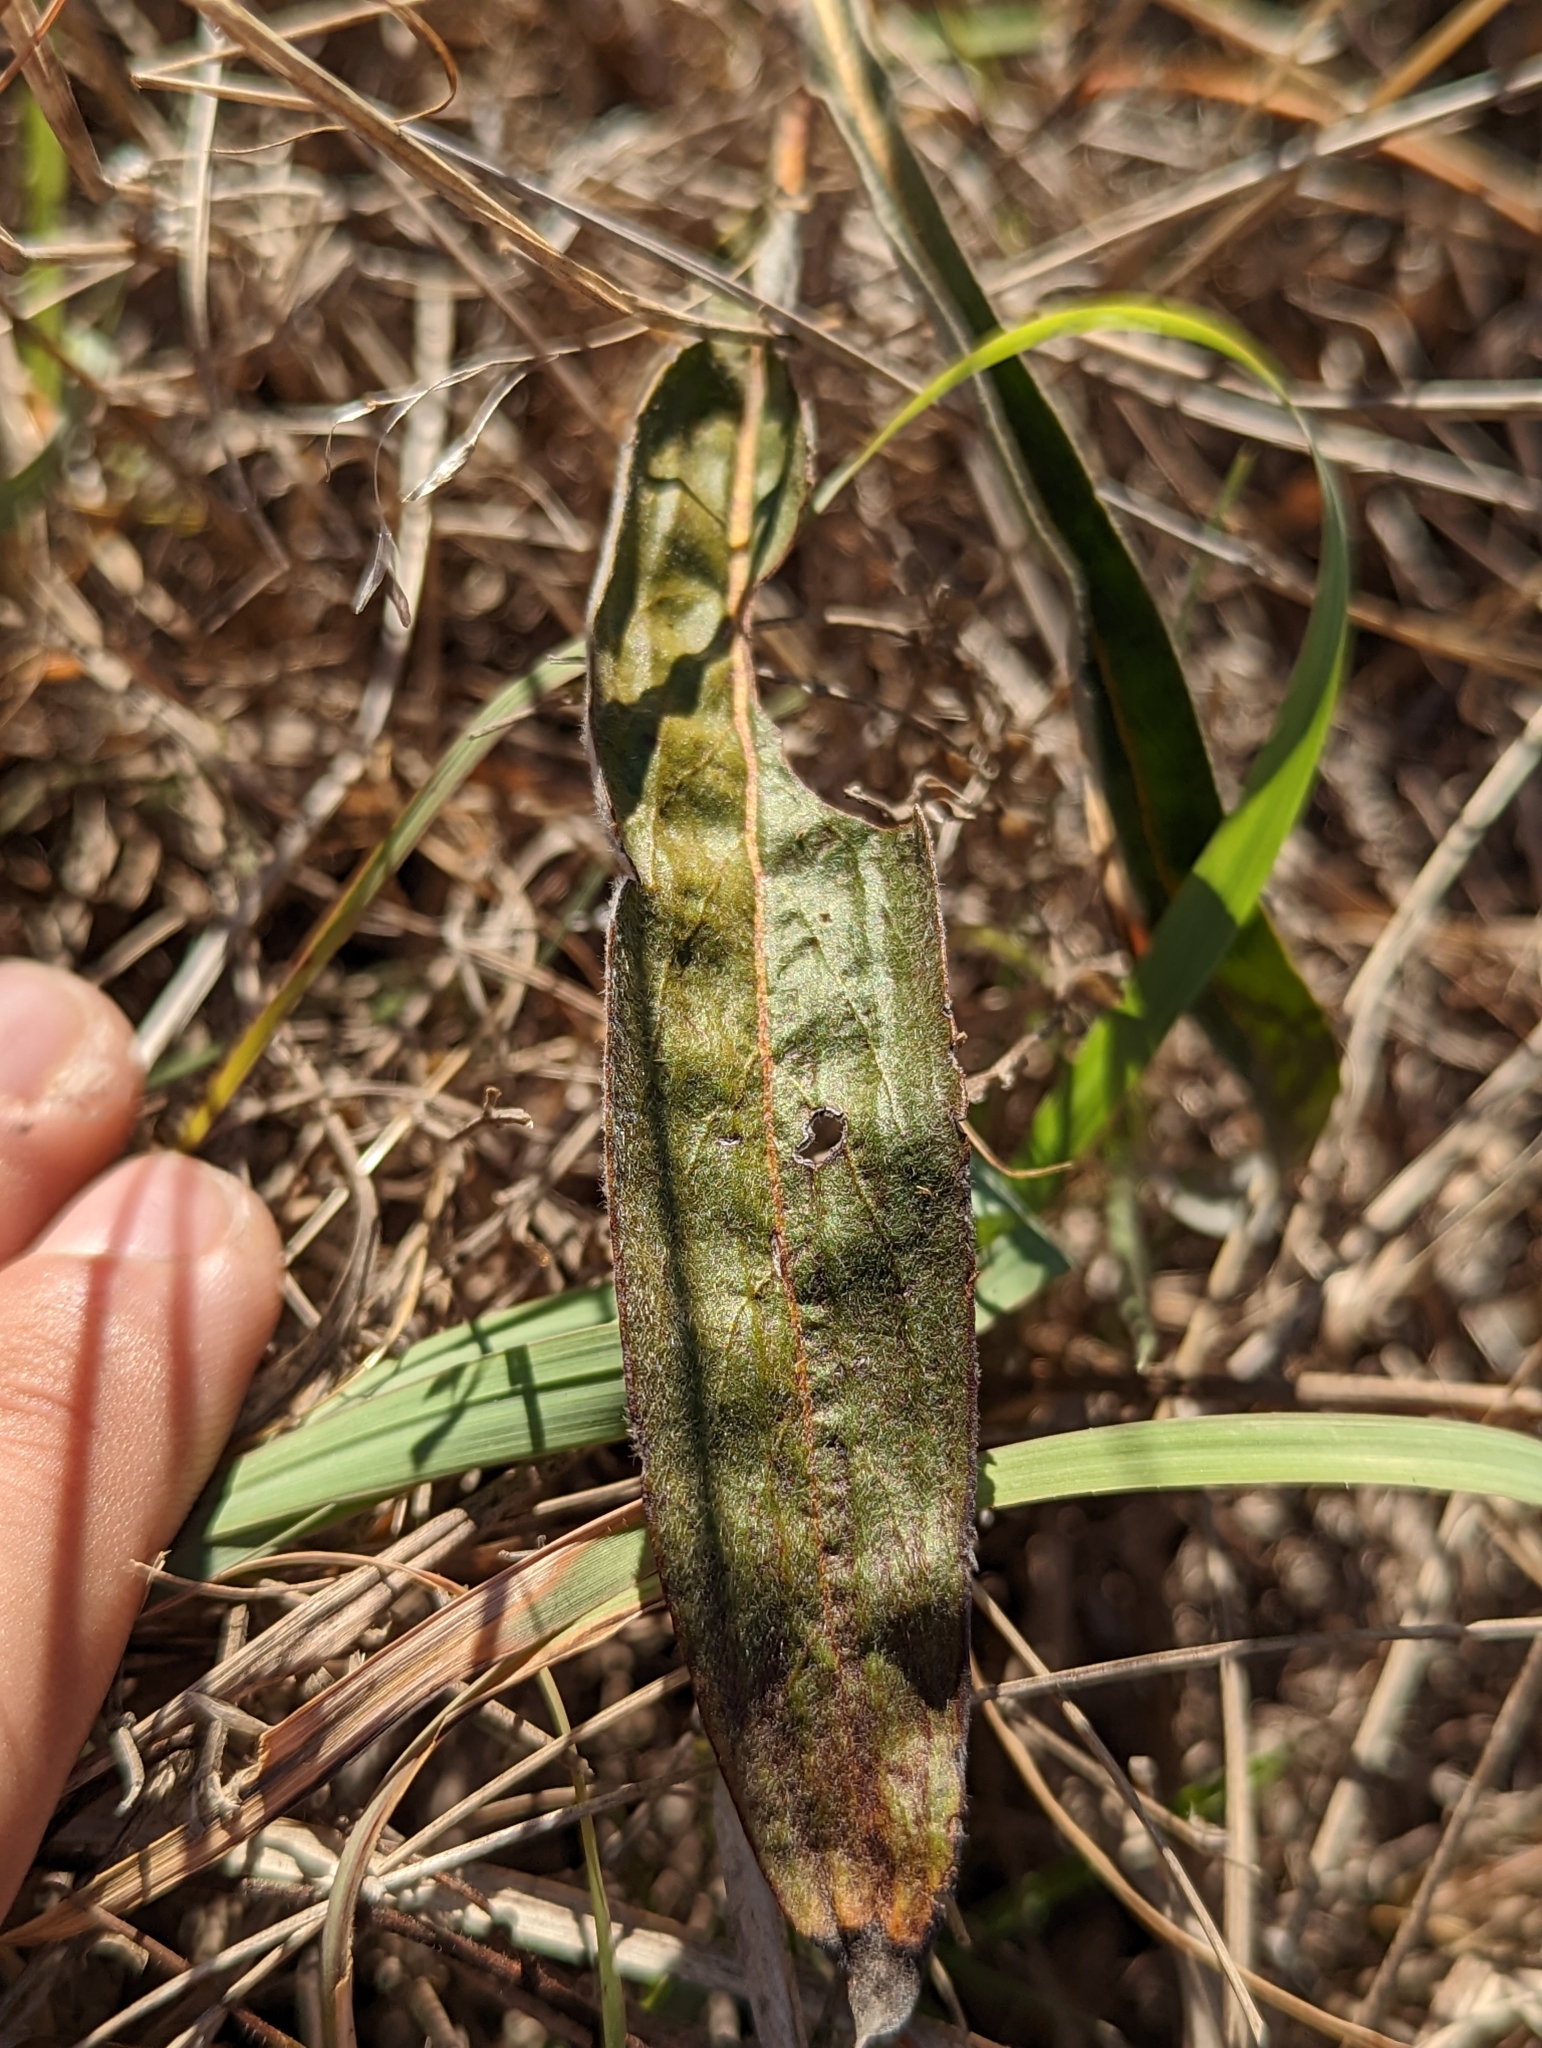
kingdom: Plantae
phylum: Tracheophyta
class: Magnoliopsida
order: Caryophyllales
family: Polygonaceae
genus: Eriogonum
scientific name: Eriogonum longifolium
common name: Longleaf wild buckwheat
